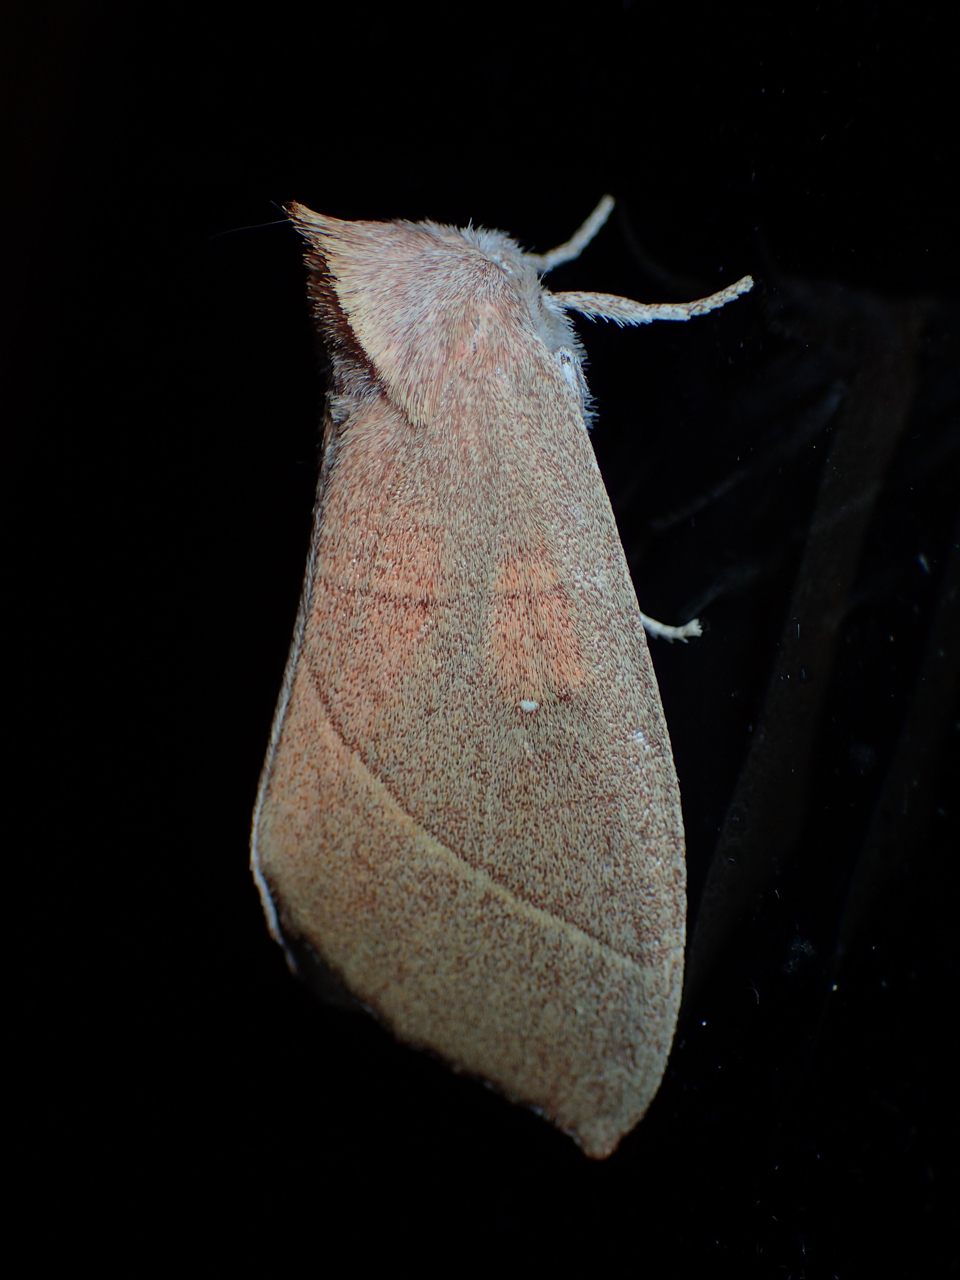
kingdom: Animalia
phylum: Arthropoda
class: Insecta
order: Lepidoptera
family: Notodontidae
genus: Nadata
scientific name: Nadata gibbosa
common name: White-dotted prominent
